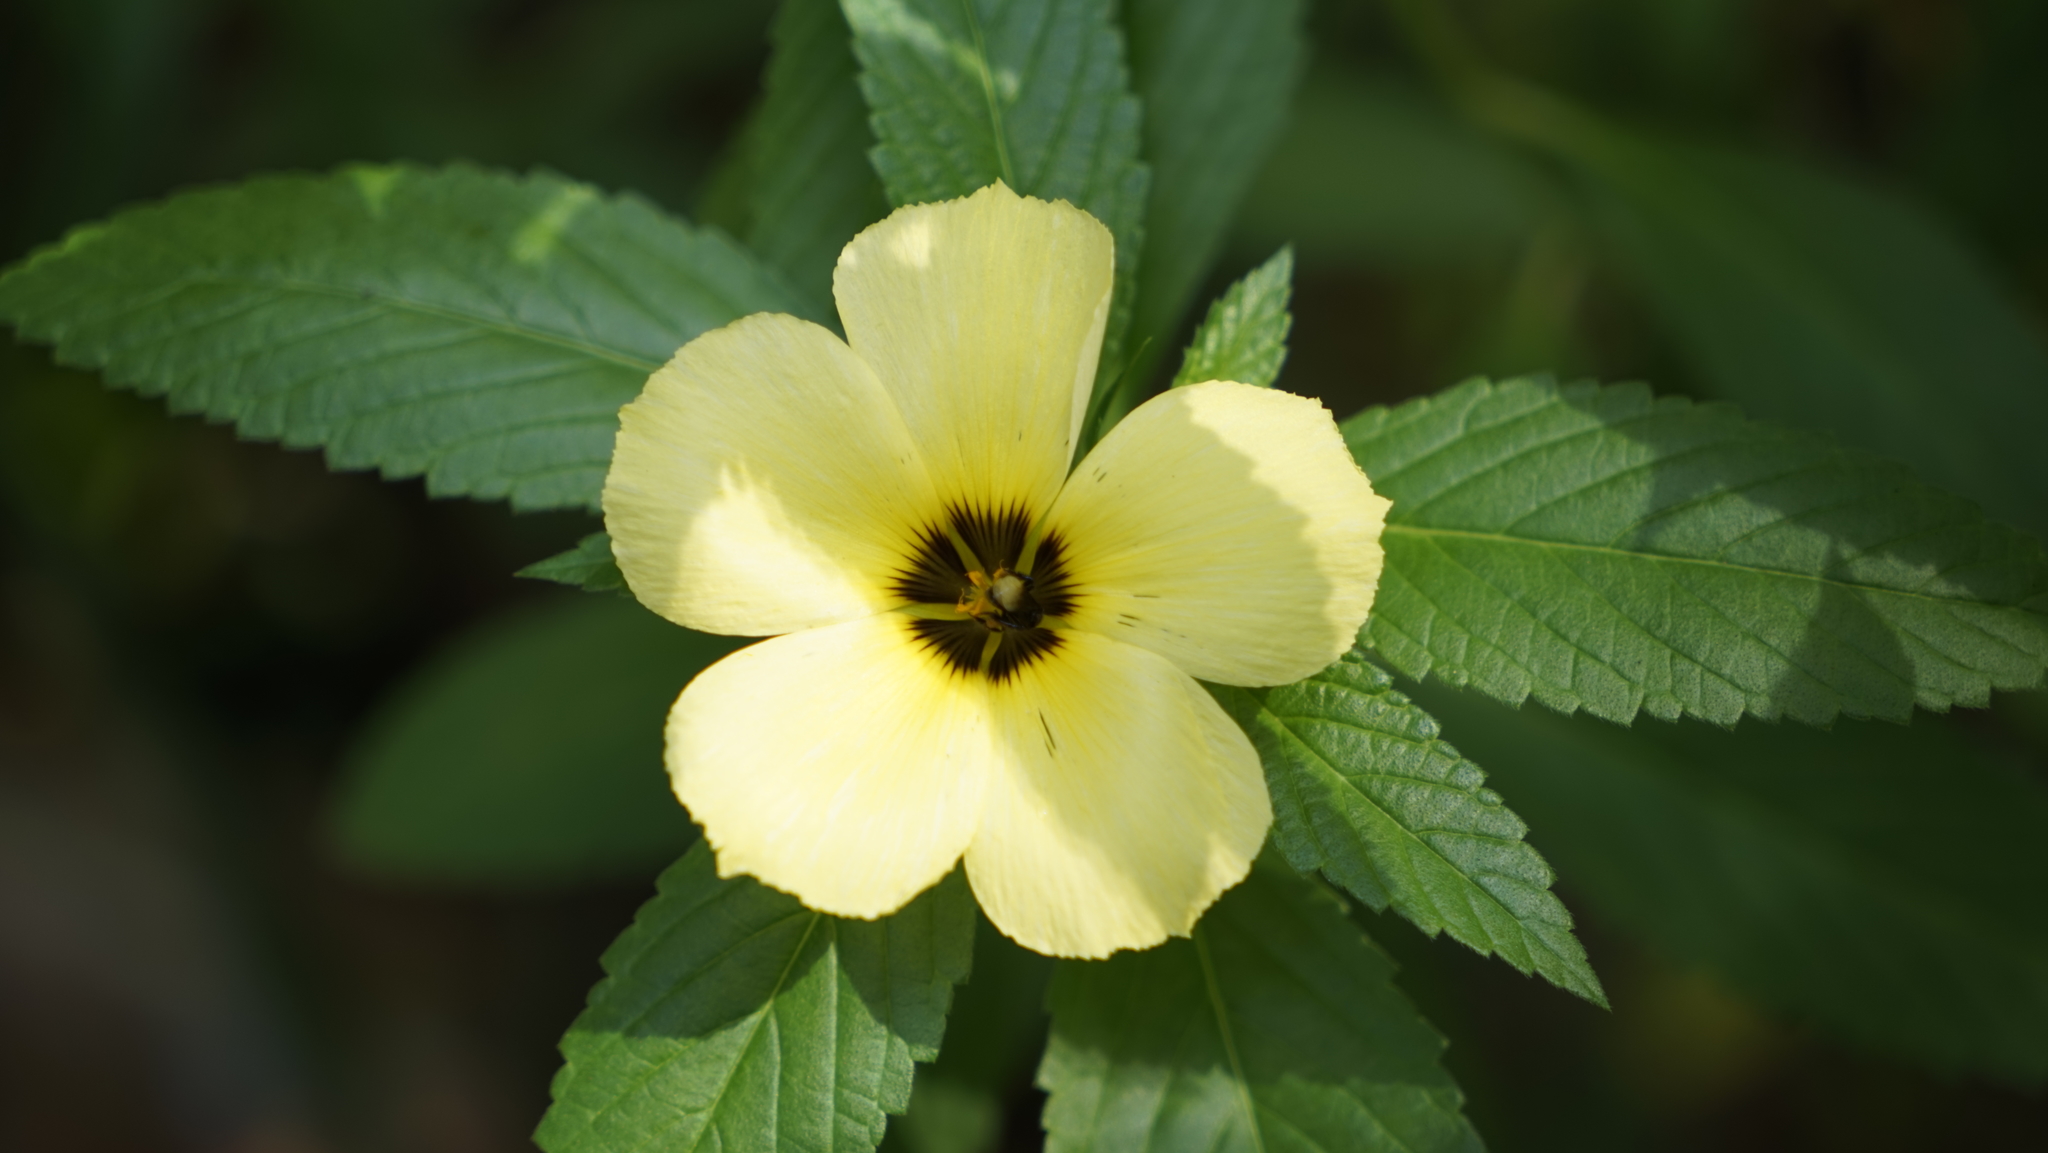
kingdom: Plantae
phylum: Tracheophyta
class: Magnoliopsida
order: Malpighiales
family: Turneraceae
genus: Turnera
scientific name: Turnera subulata
